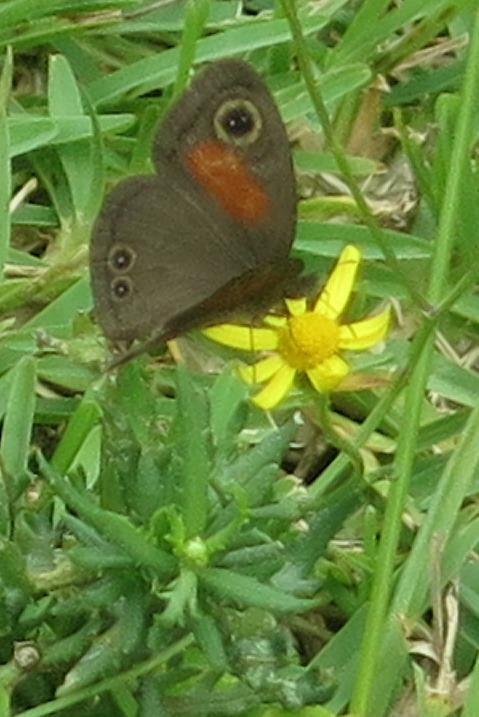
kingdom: Animalia
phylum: Arthropoda
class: Insecta
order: Lepidoptera
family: Nymphalidae
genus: Cassionympha
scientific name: Cassionympha cassius
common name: Rainforest brown
